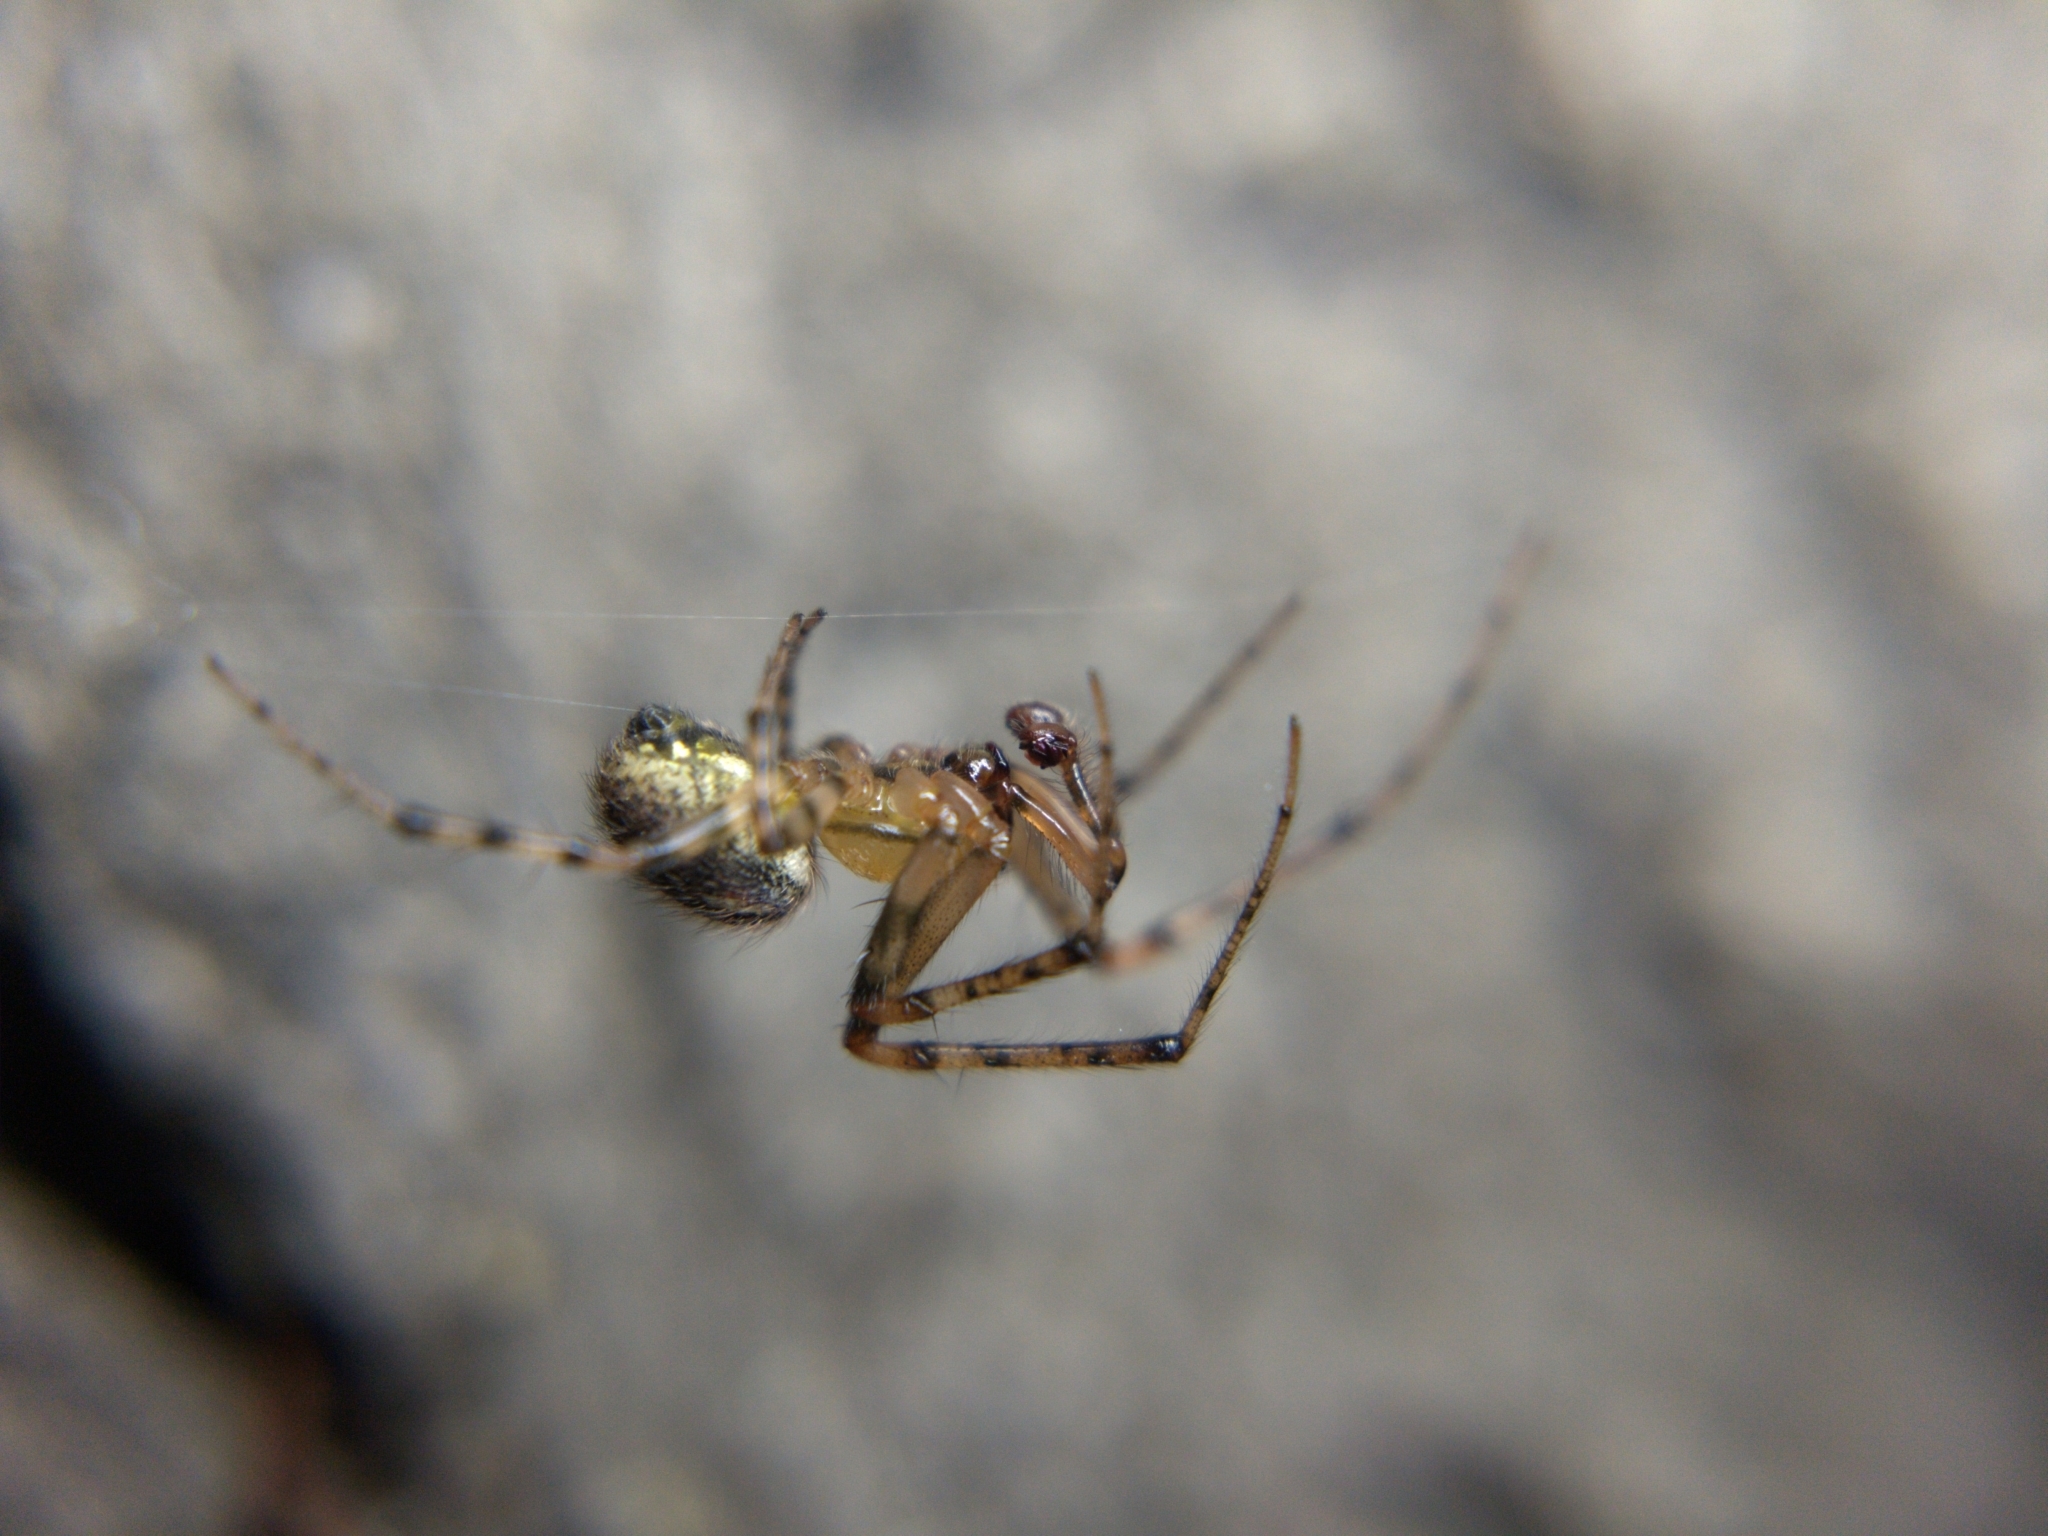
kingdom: Animalia
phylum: Arthropoda
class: Arachnida
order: Araneae
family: Araneidae
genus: Zygiella
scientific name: Zygiella atrica
